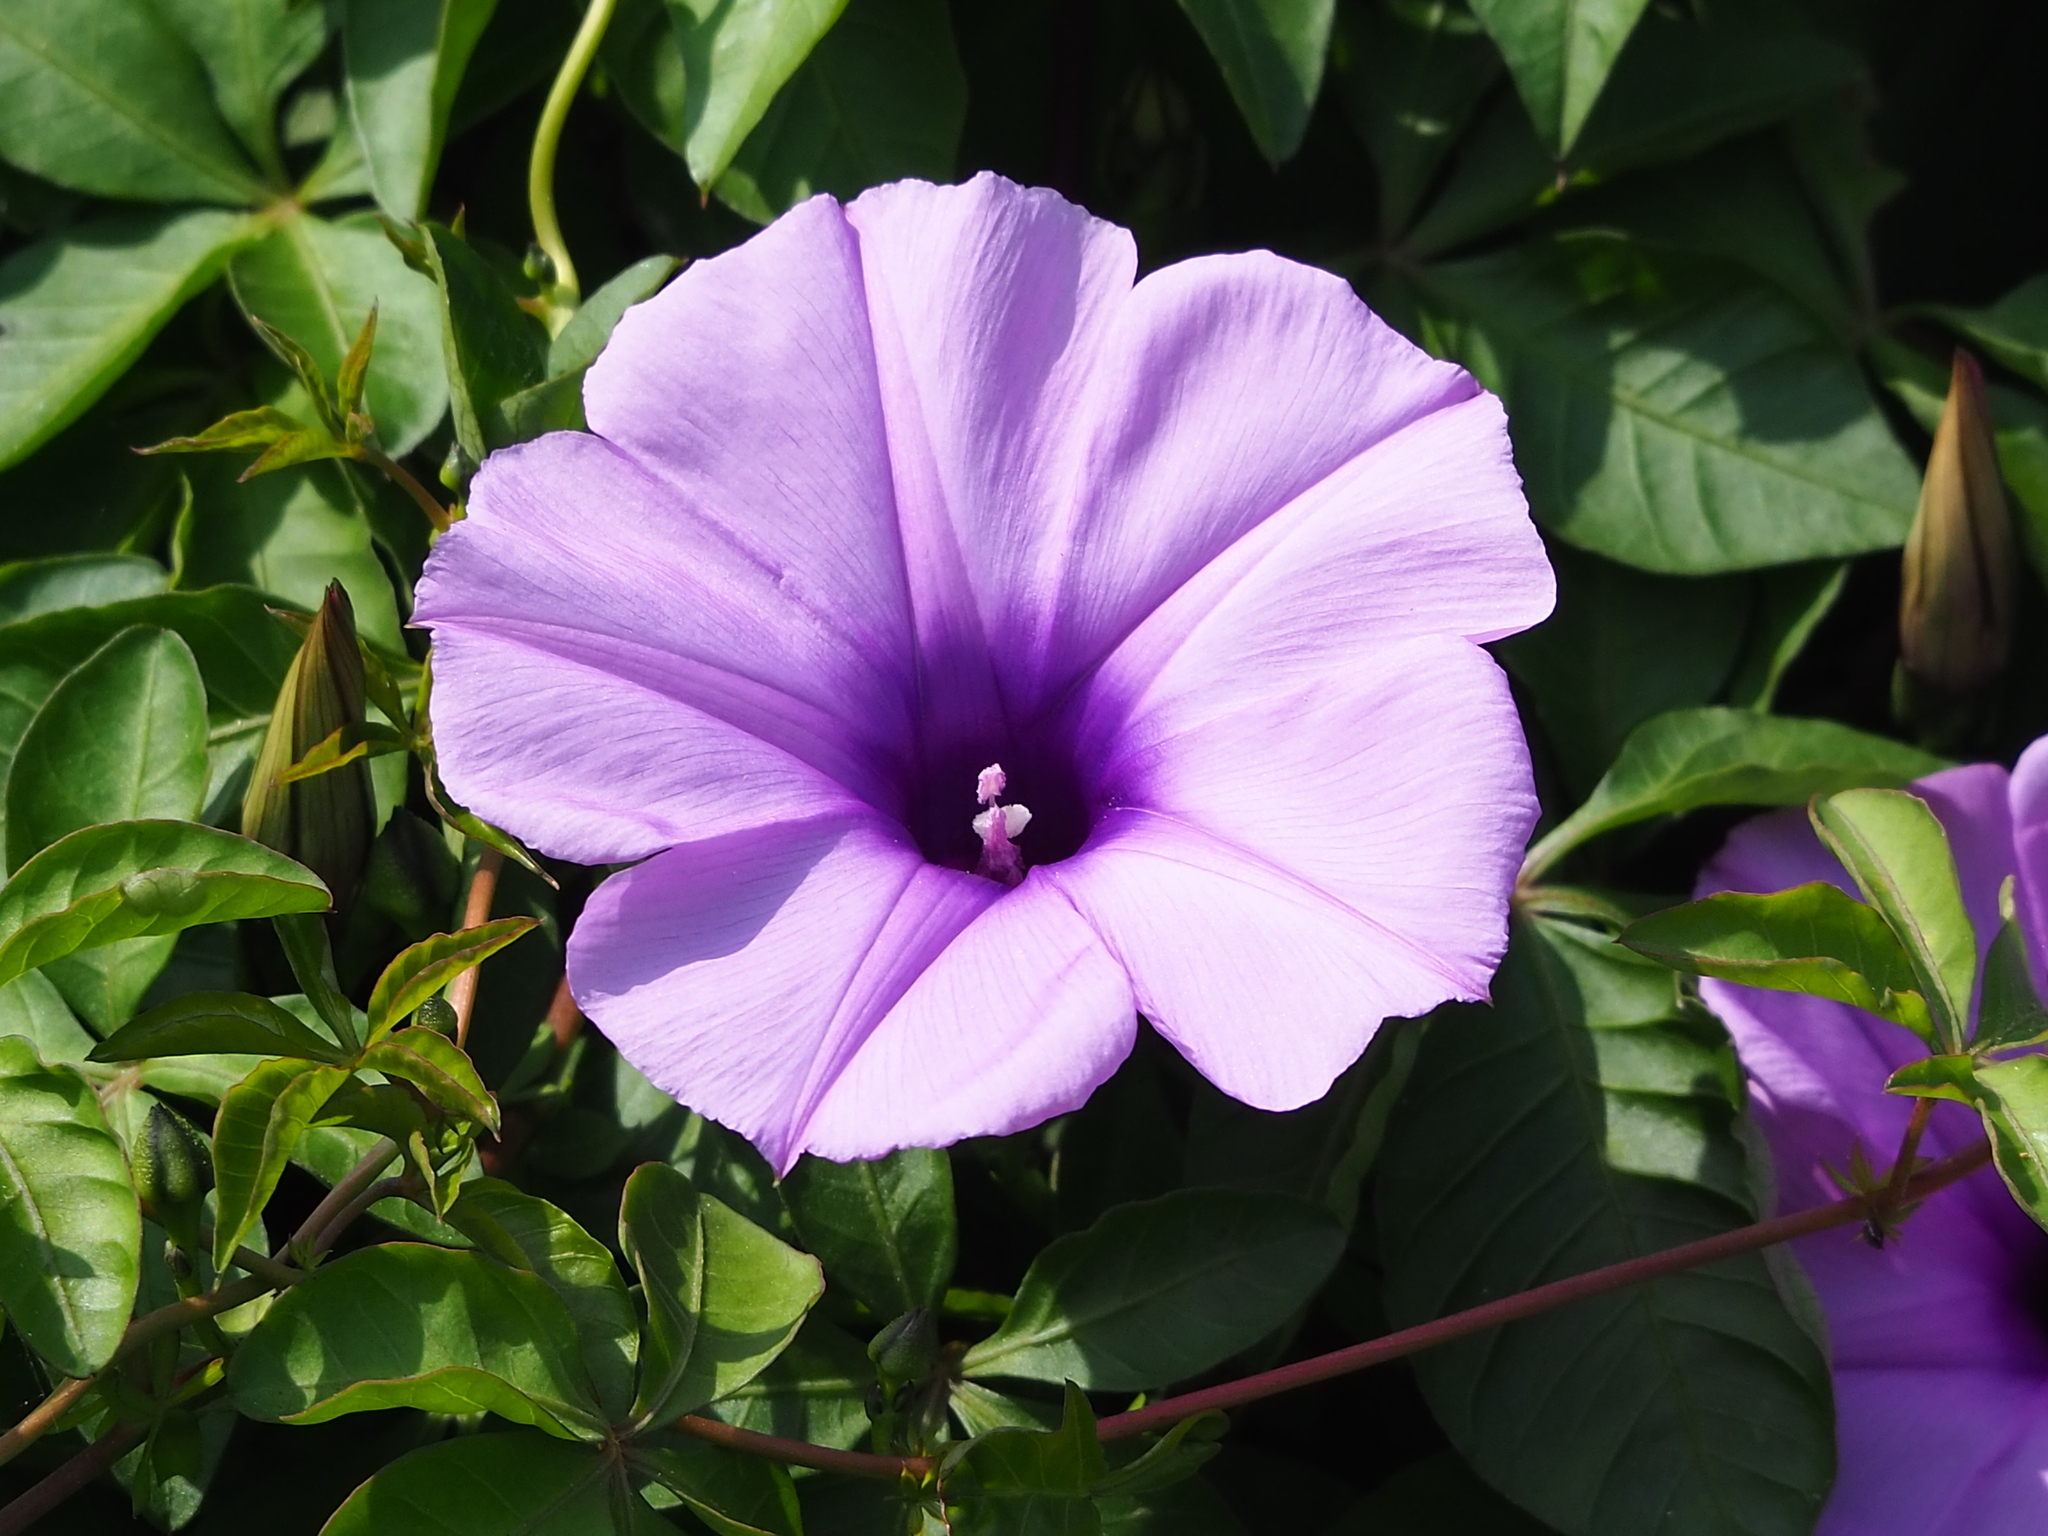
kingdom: Plantae
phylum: Tracheophyta
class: Magnoliopsida
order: Solanales
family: Convolvulaceae
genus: Ipomoea
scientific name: Ipomoea cairica
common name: Mile a minute vine
